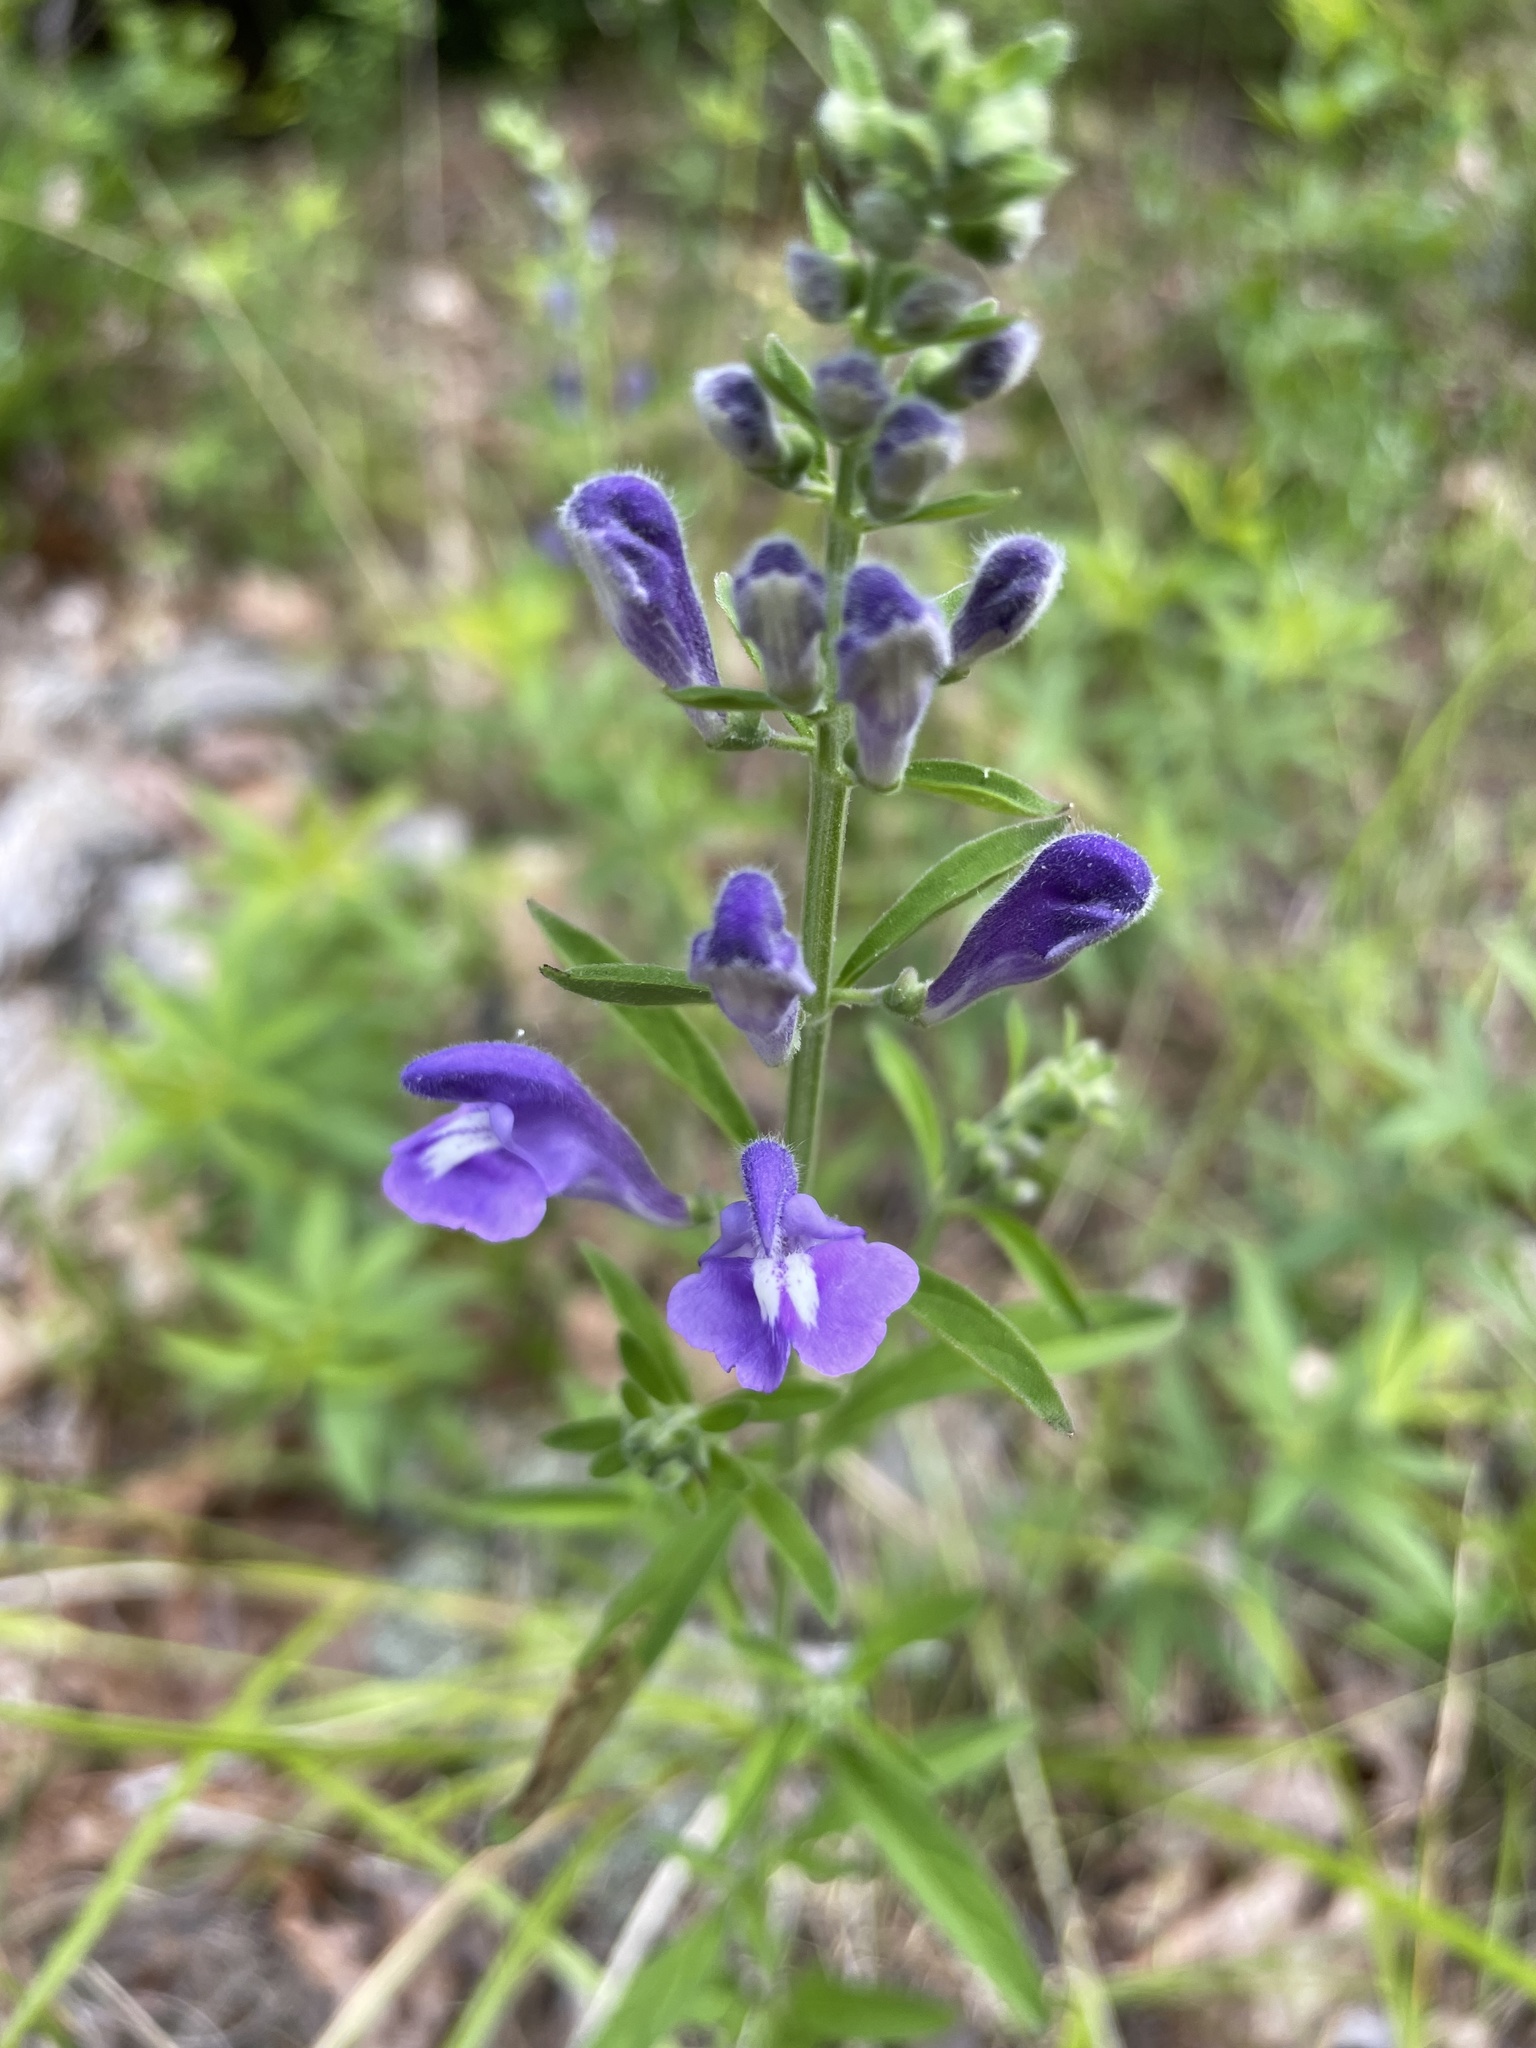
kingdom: Plantae
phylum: Tracheophyta
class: Magnoliopsida
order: Lamiales
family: Lamiaceae
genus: Scutellaria
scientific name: Scutellaria integrifolia
